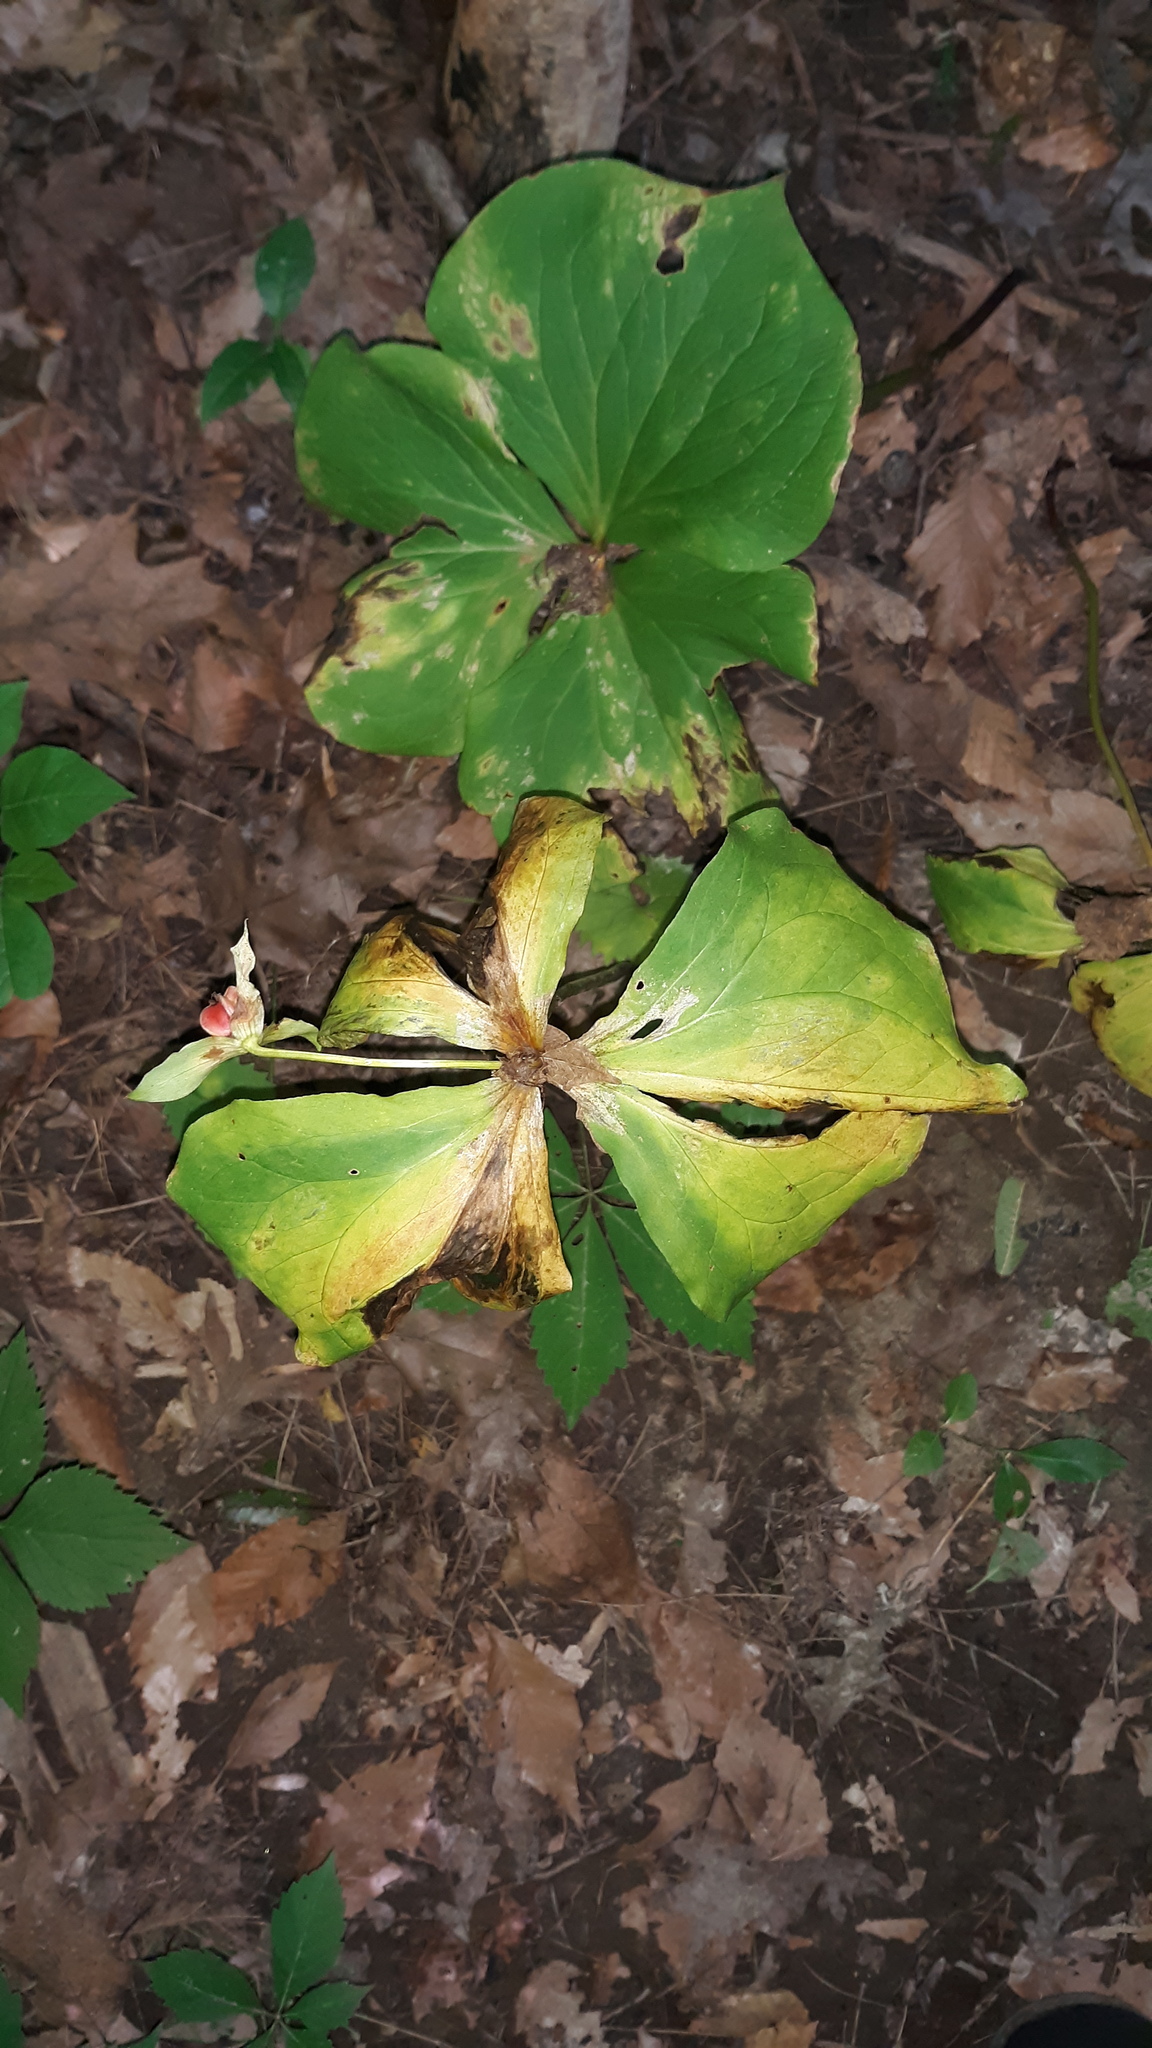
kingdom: Plantae
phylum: Tracheophyta
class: Liliopsida
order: Liliales
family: Melanthiaceae
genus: Trillium
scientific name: Trillium flexipes
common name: Drooping trillium
